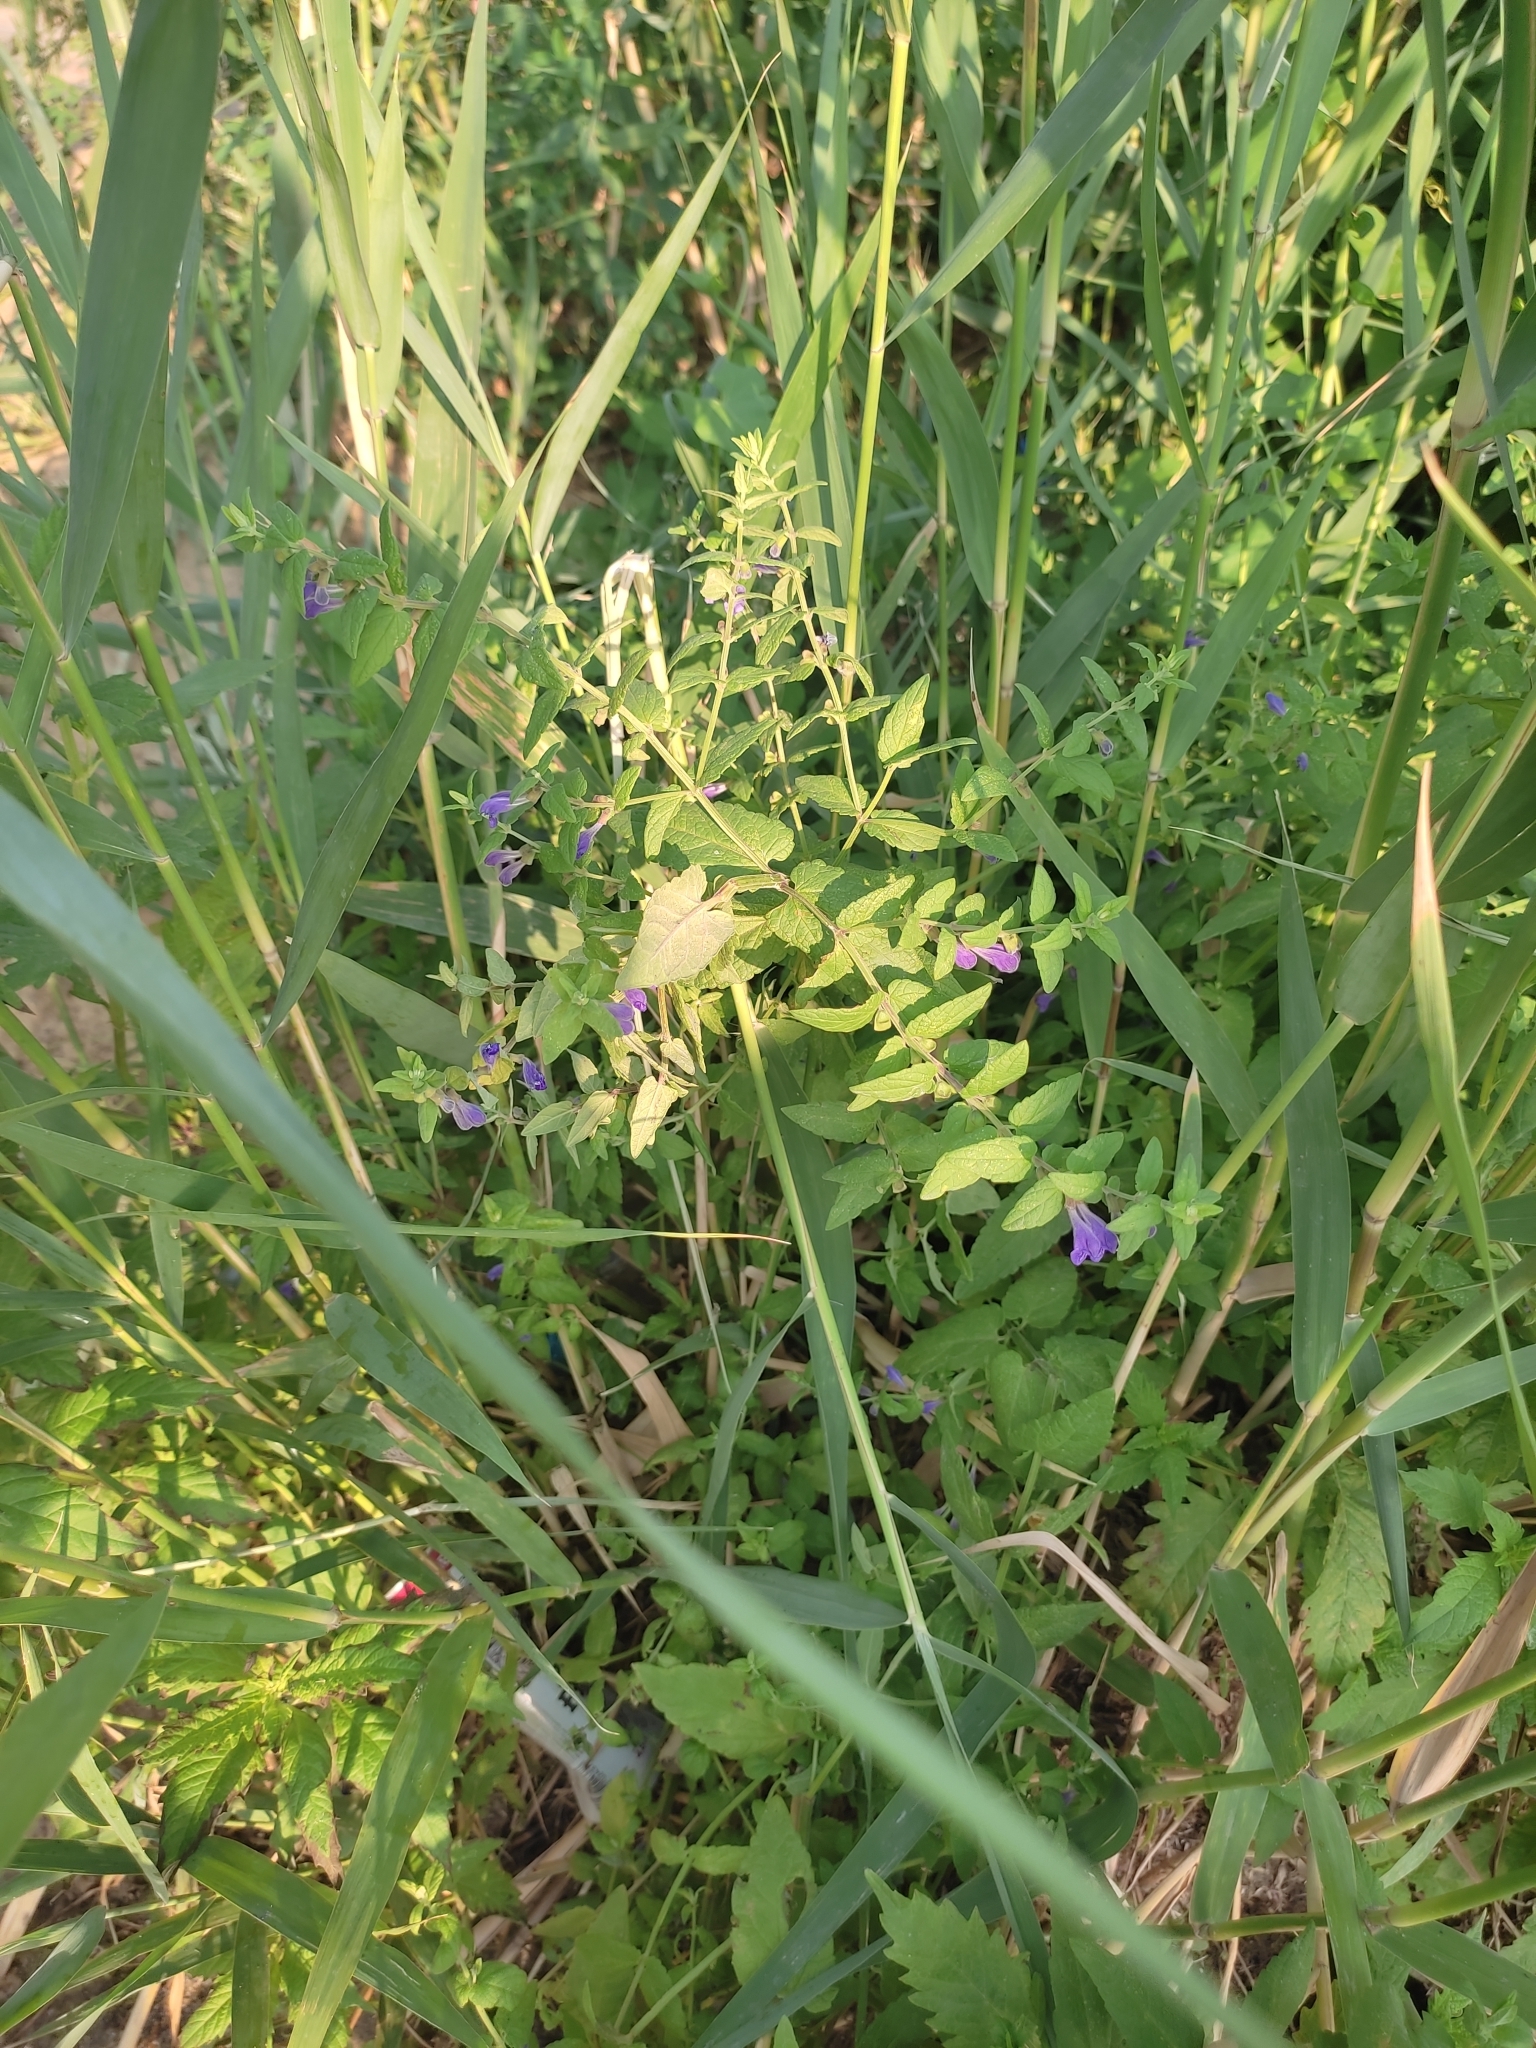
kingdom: Plantae
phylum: Tracheophyta
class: Magnoliopsida
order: Lamiales
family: Lamiaceae
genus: Scutellaria
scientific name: Scutellaria galericulata
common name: Skullcap
